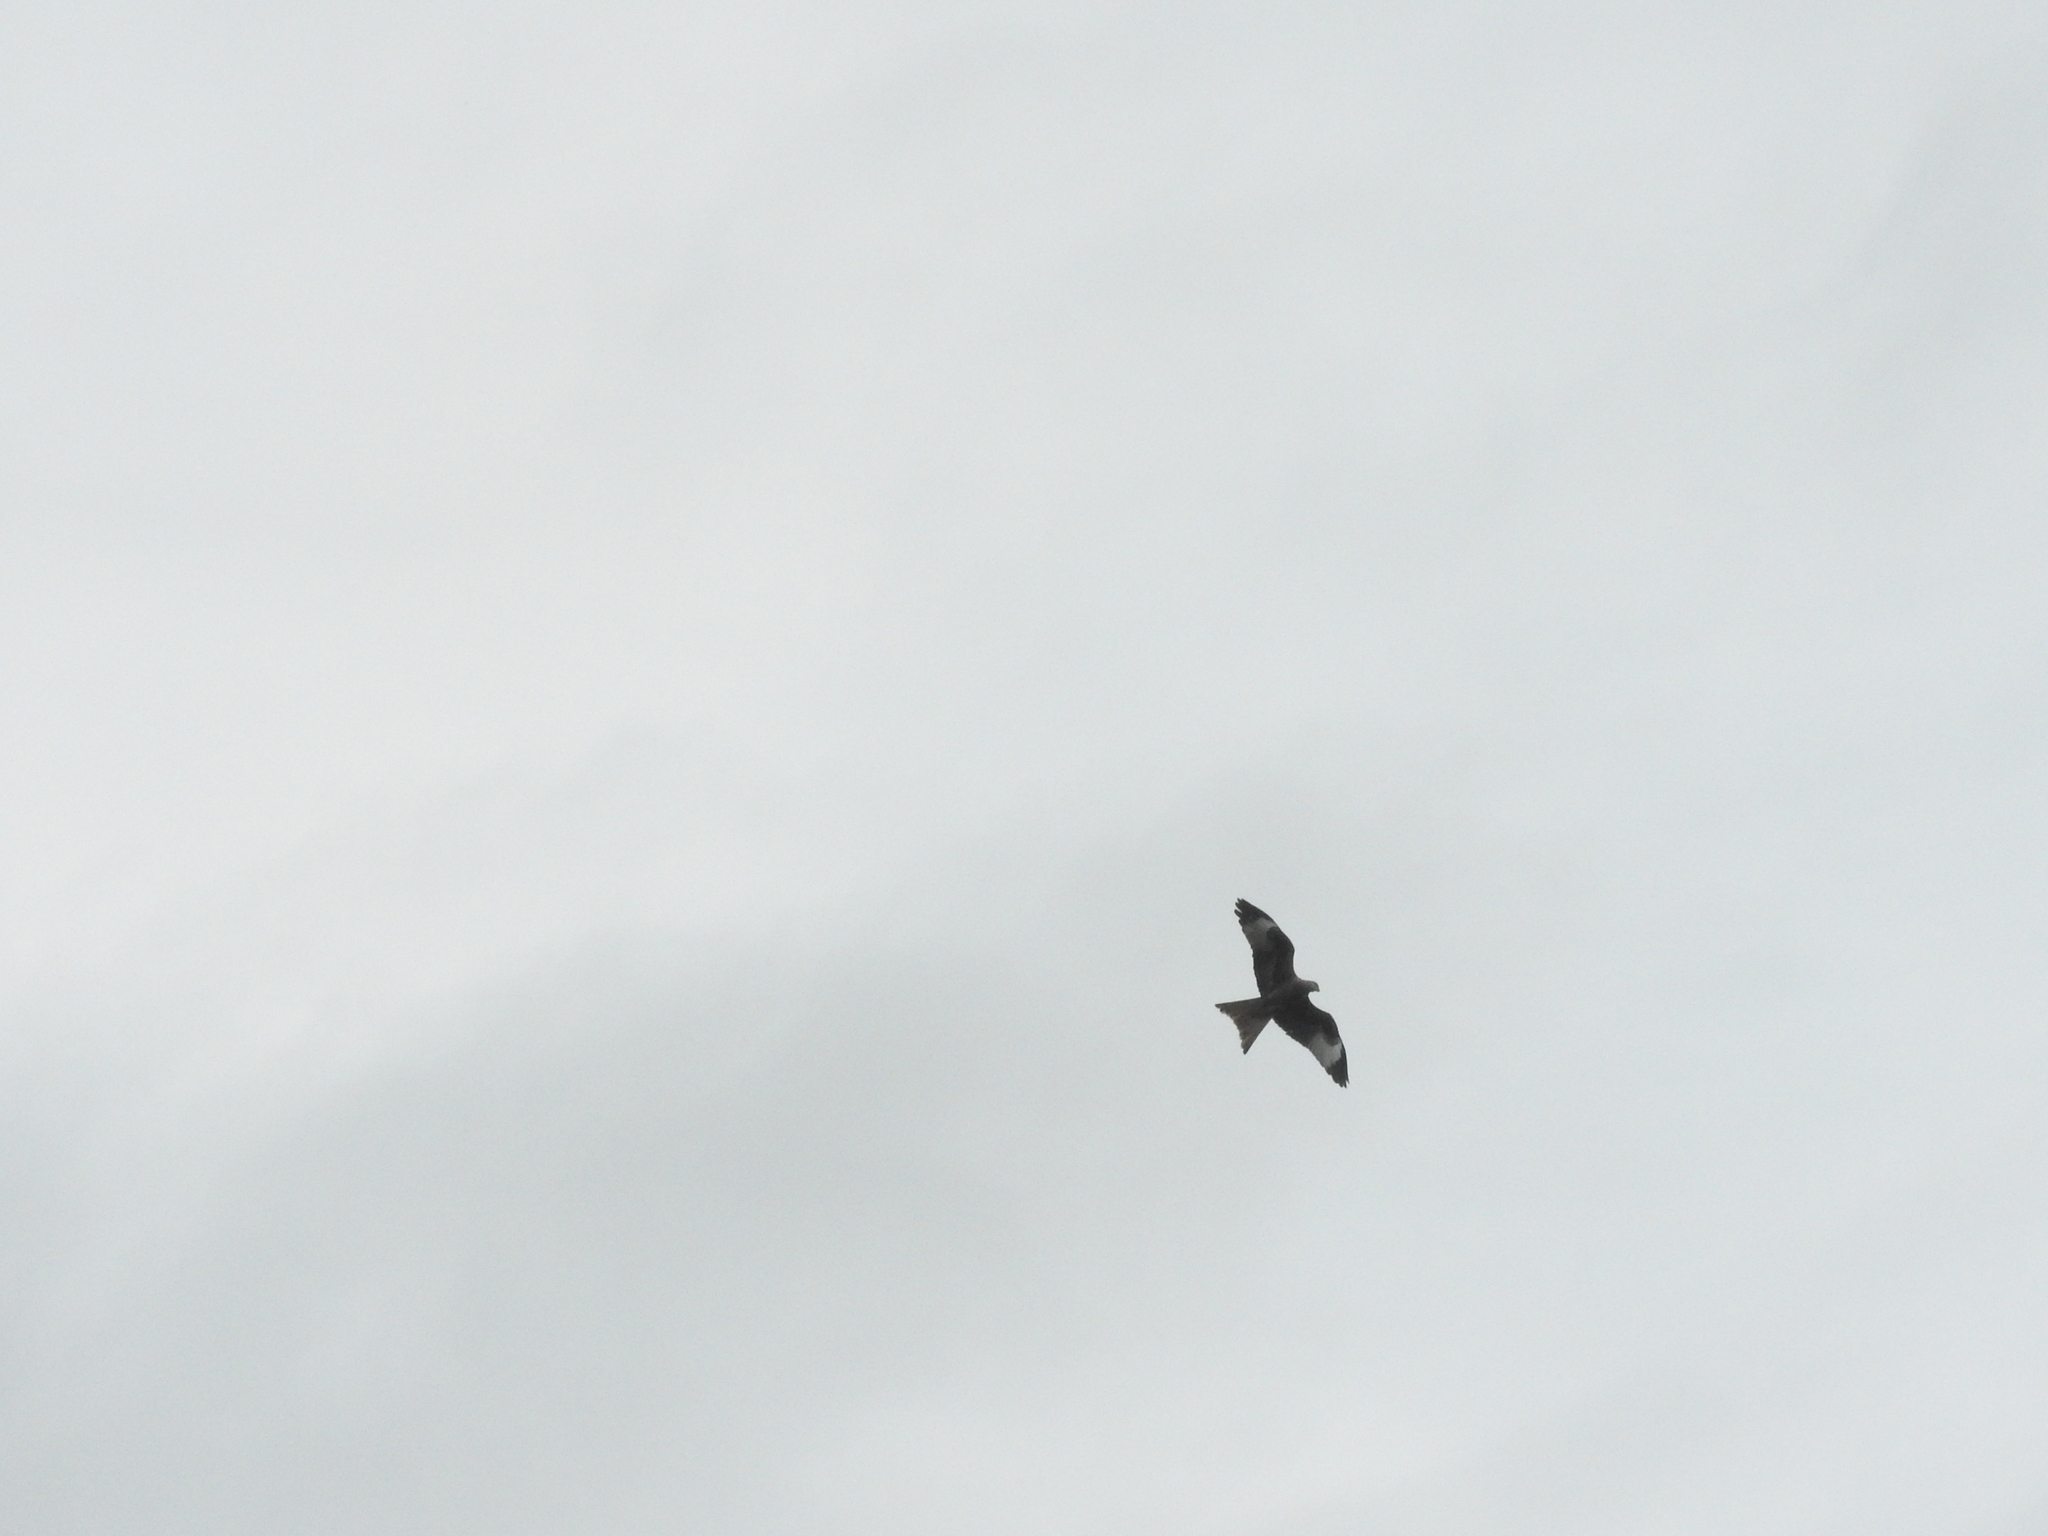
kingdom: Animalia
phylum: Chordata
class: Aves
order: Accipitriformes
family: Accipitridae
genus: Milvus
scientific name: Milvus milvus
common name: Red kite
